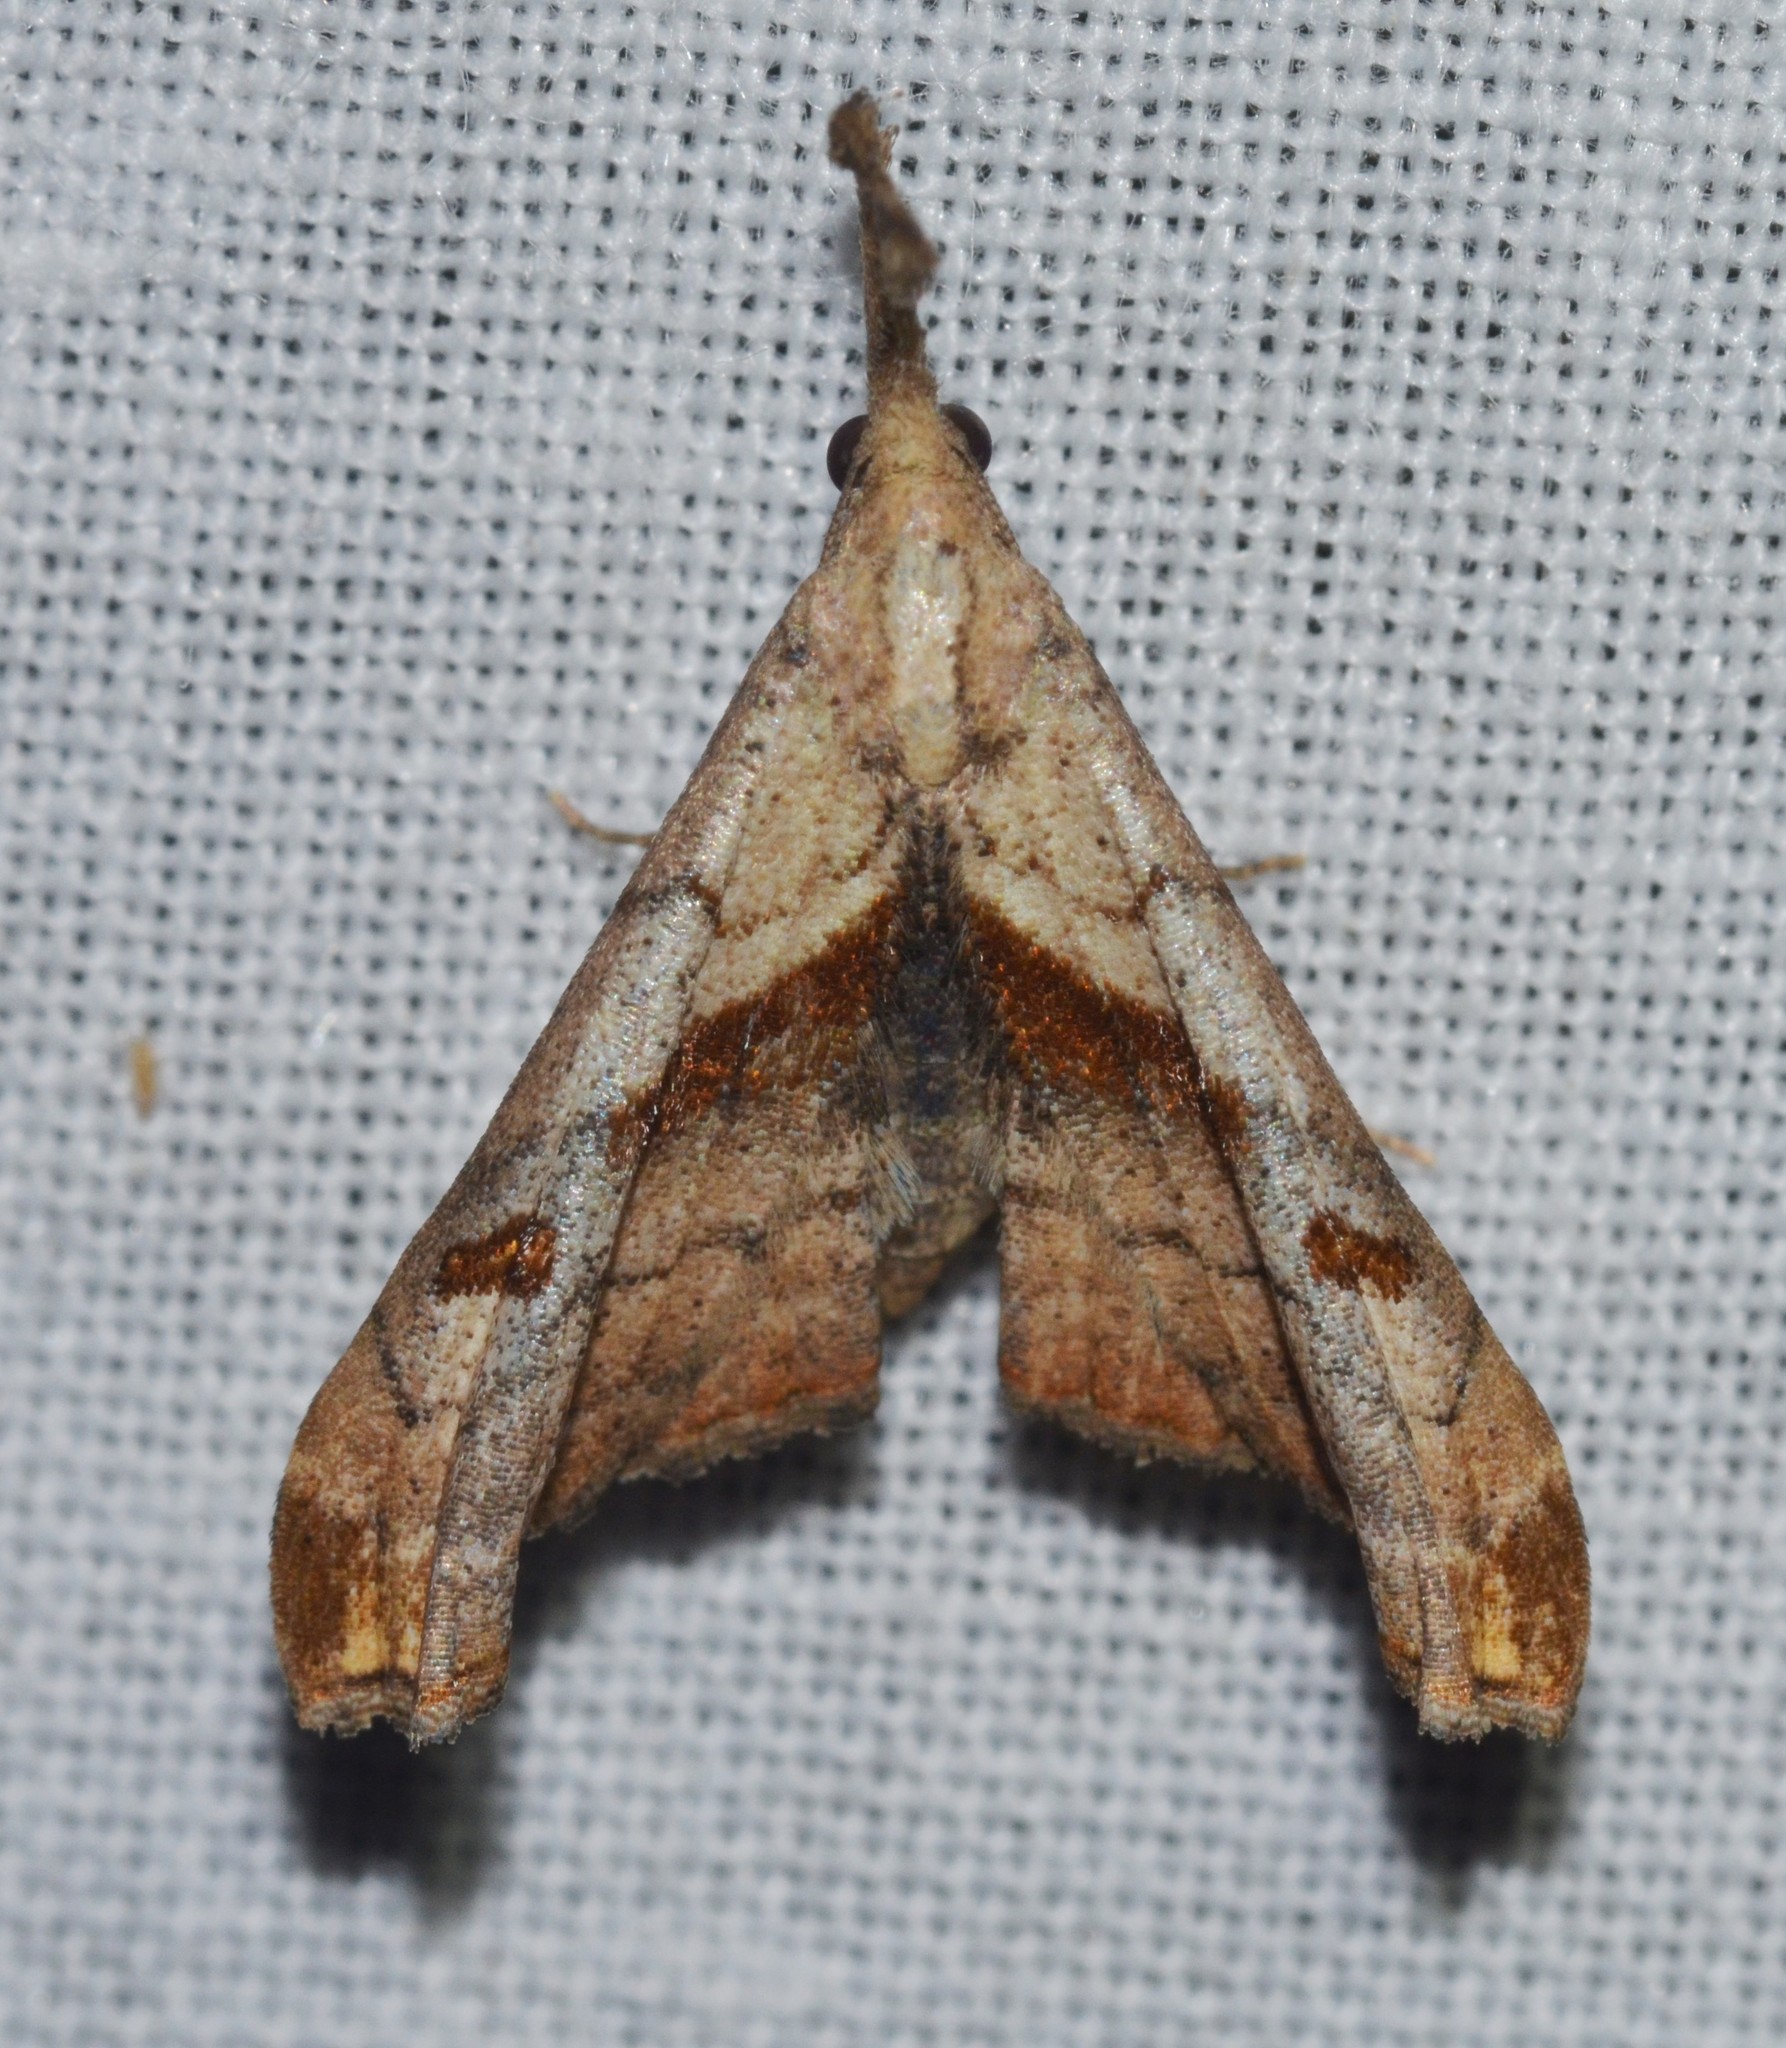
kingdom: Animalia
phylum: Arthropoda
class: Insecta
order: Lepidoptera
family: Erebidae
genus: Palthis
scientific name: Palthis angulalis
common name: Dark-spotted palthis moth
